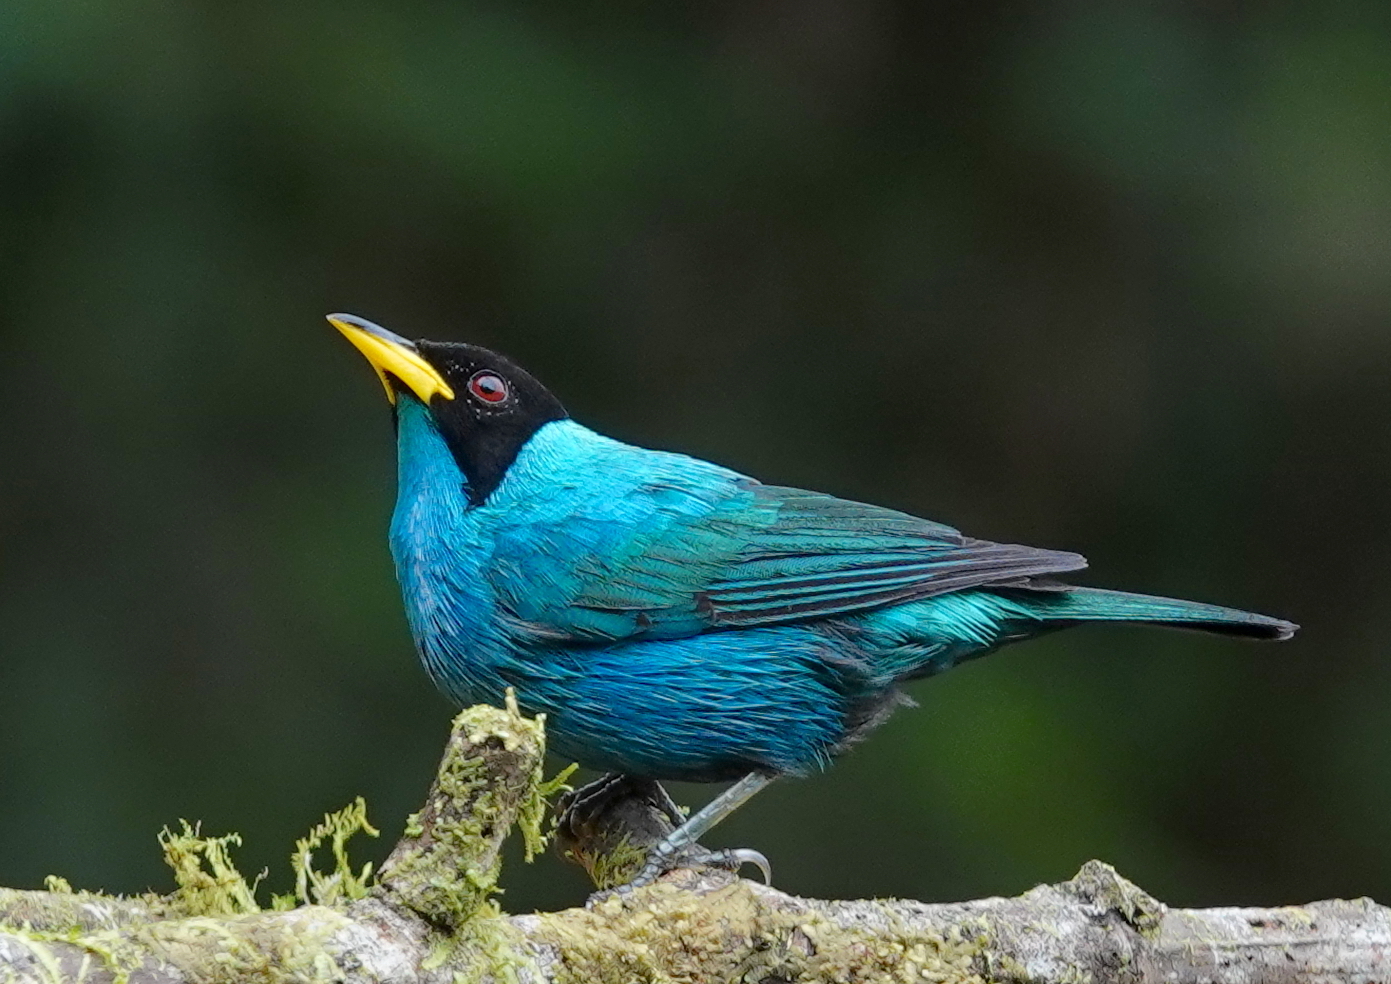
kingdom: Animalia
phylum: Chordata
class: Aves
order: Passeriformes
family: Thraupidae
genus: Chlorophanes
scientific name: Chlorophanes spiza
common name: Green honeycreeper
